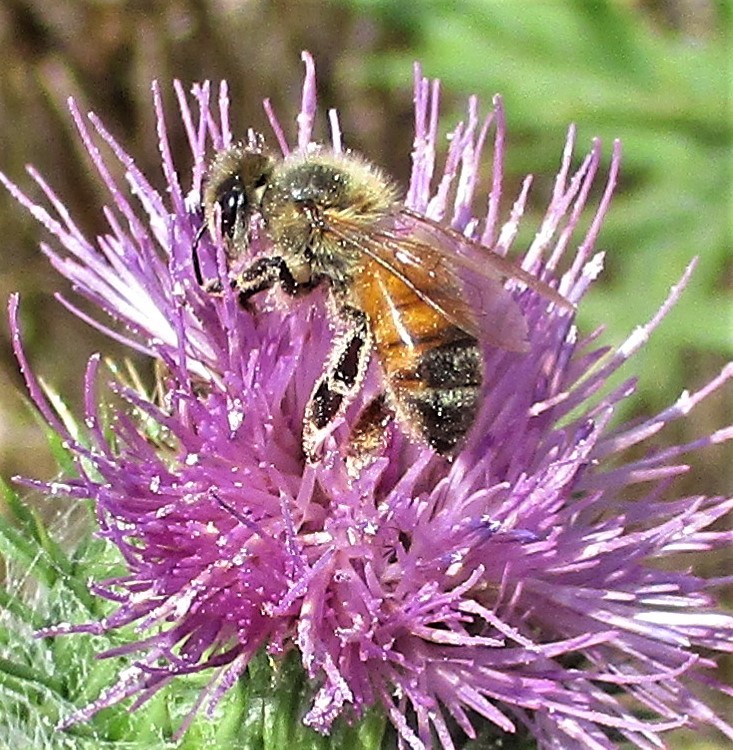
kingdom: Animalia
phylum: Arthropoda
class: Insecta
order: Hymenoptera
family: Apidae
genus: Apis
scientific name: Apis mellifera
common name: Honey bee
